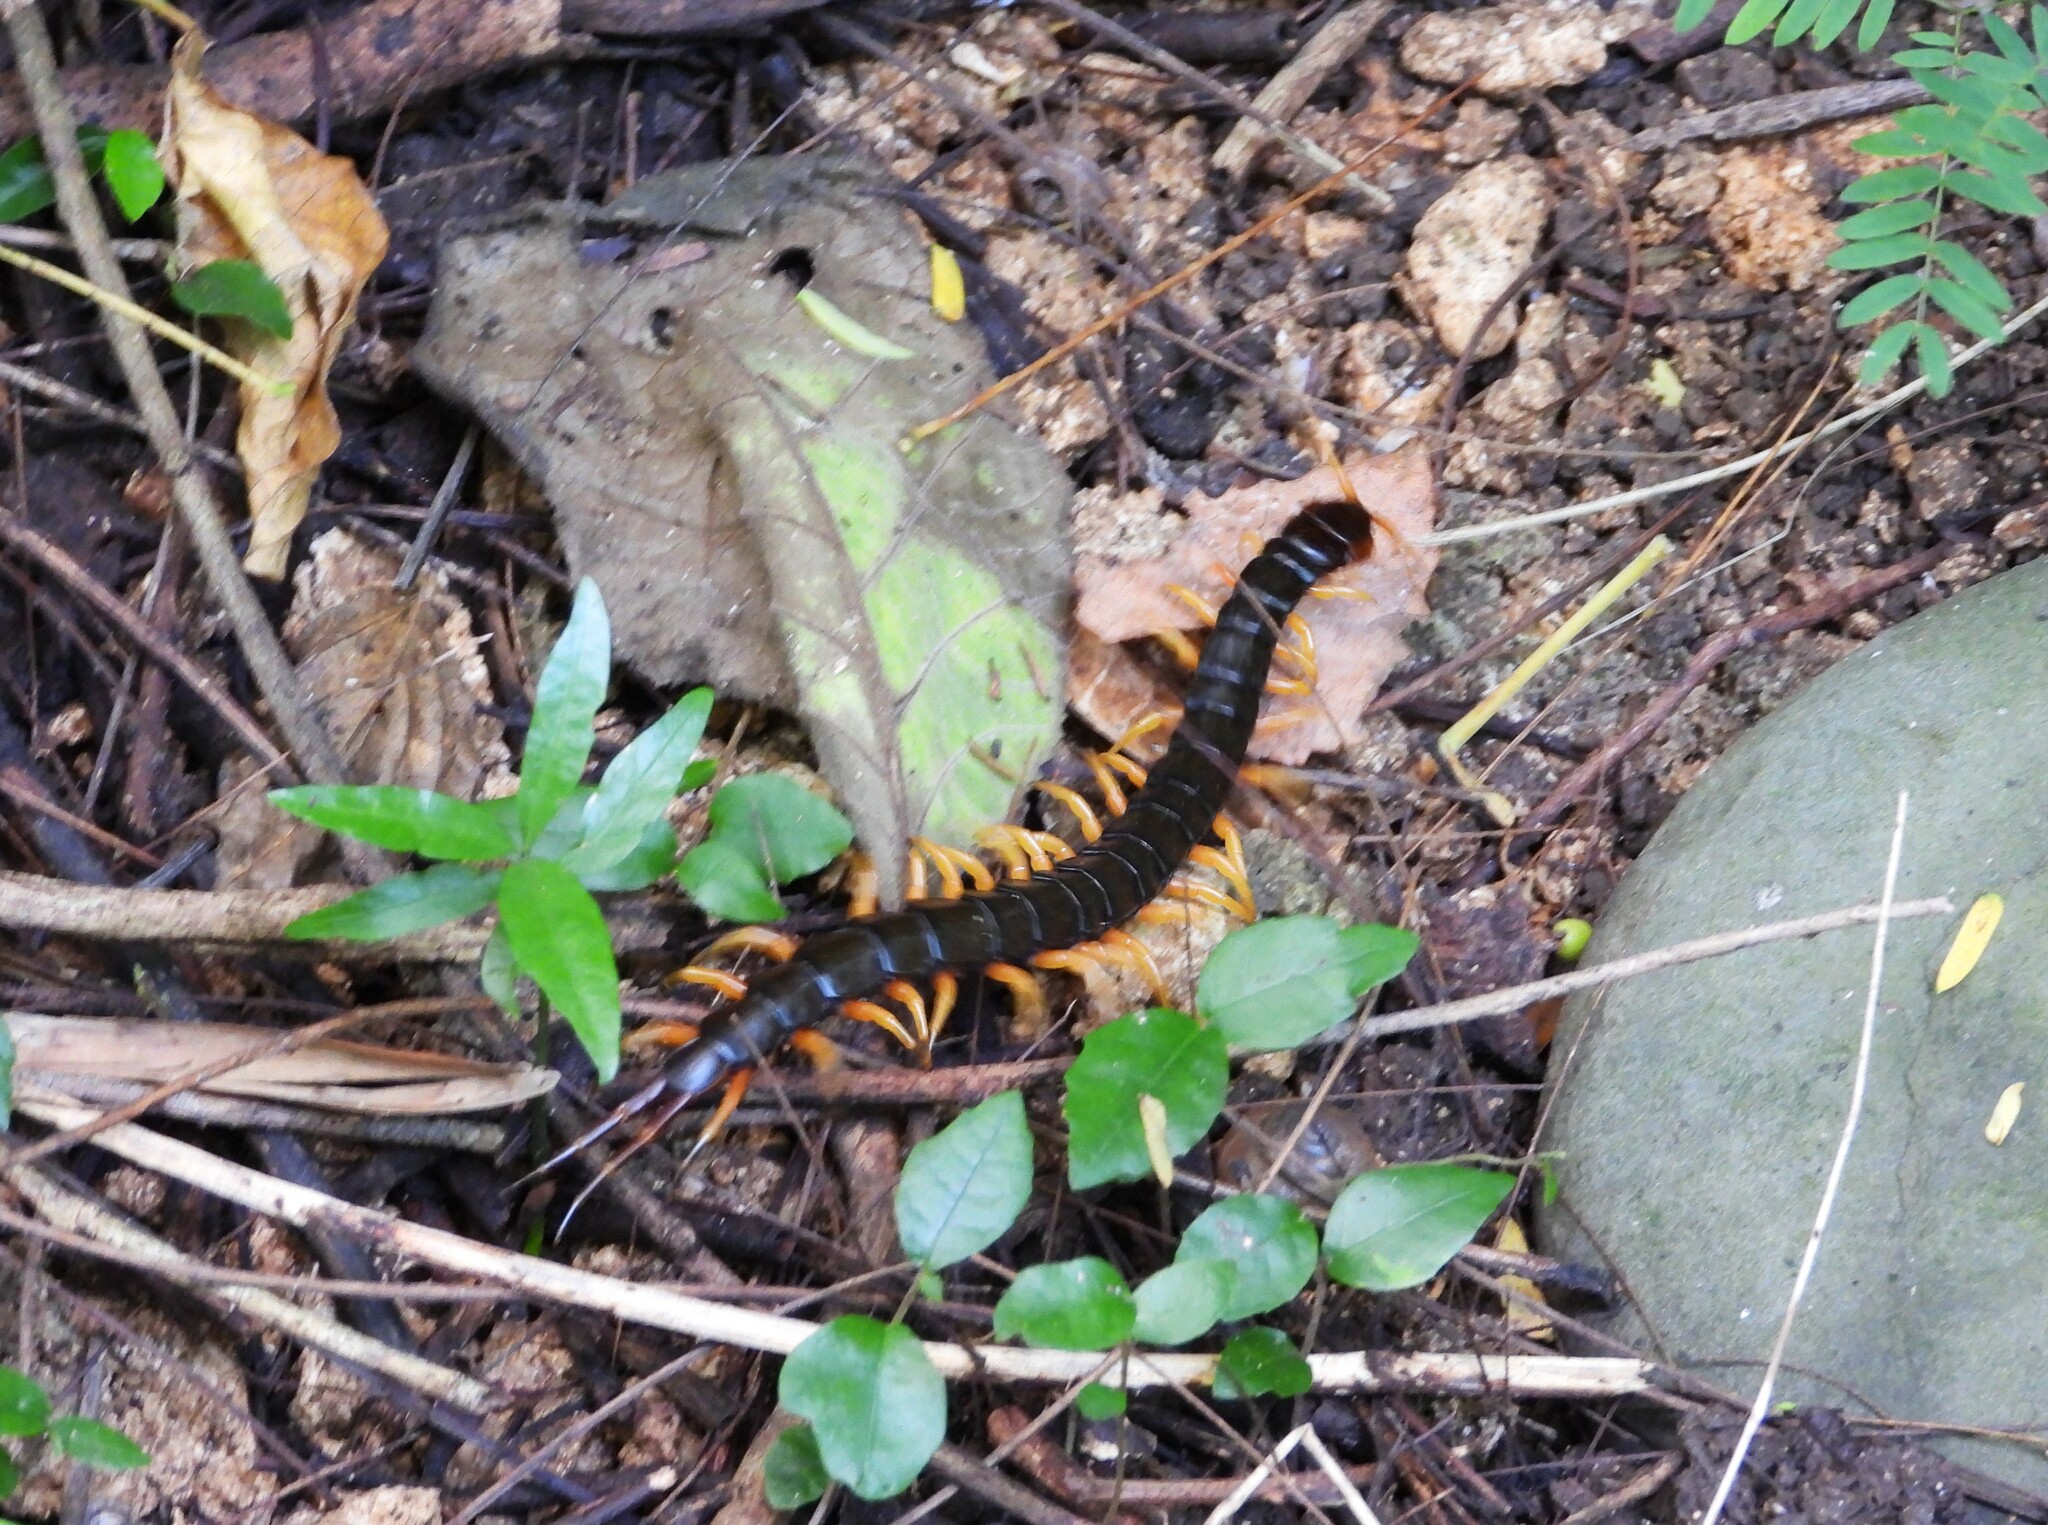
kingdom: Animalia
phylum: Arthropoda
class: Chilopoda
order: Scolopendromorpha
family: Scolopendridae
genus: Scolopendra
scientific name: Scolopendra mutilans
